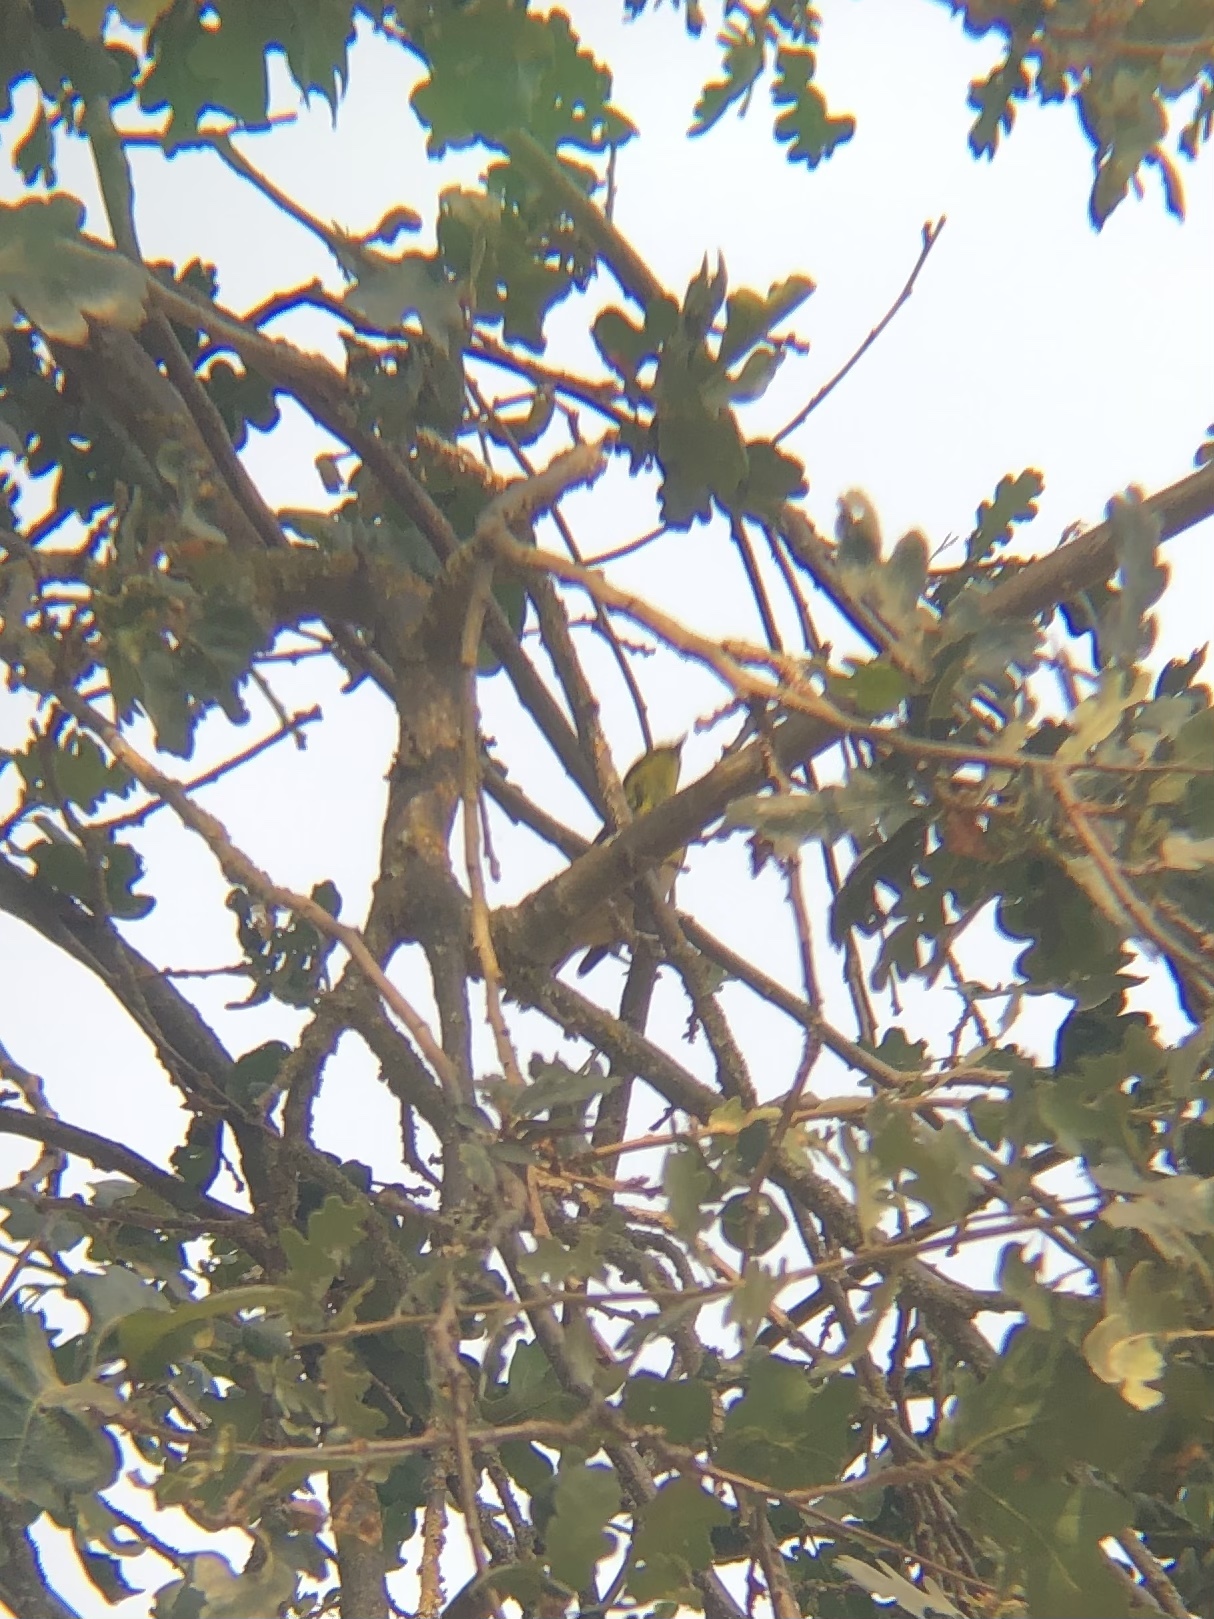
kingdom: Animalia
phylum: Chordata
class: Aves
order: Passeriformes
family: Parulidae
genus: Setophaga
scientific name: Setophaga townsendi
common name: Townsend's warbler
